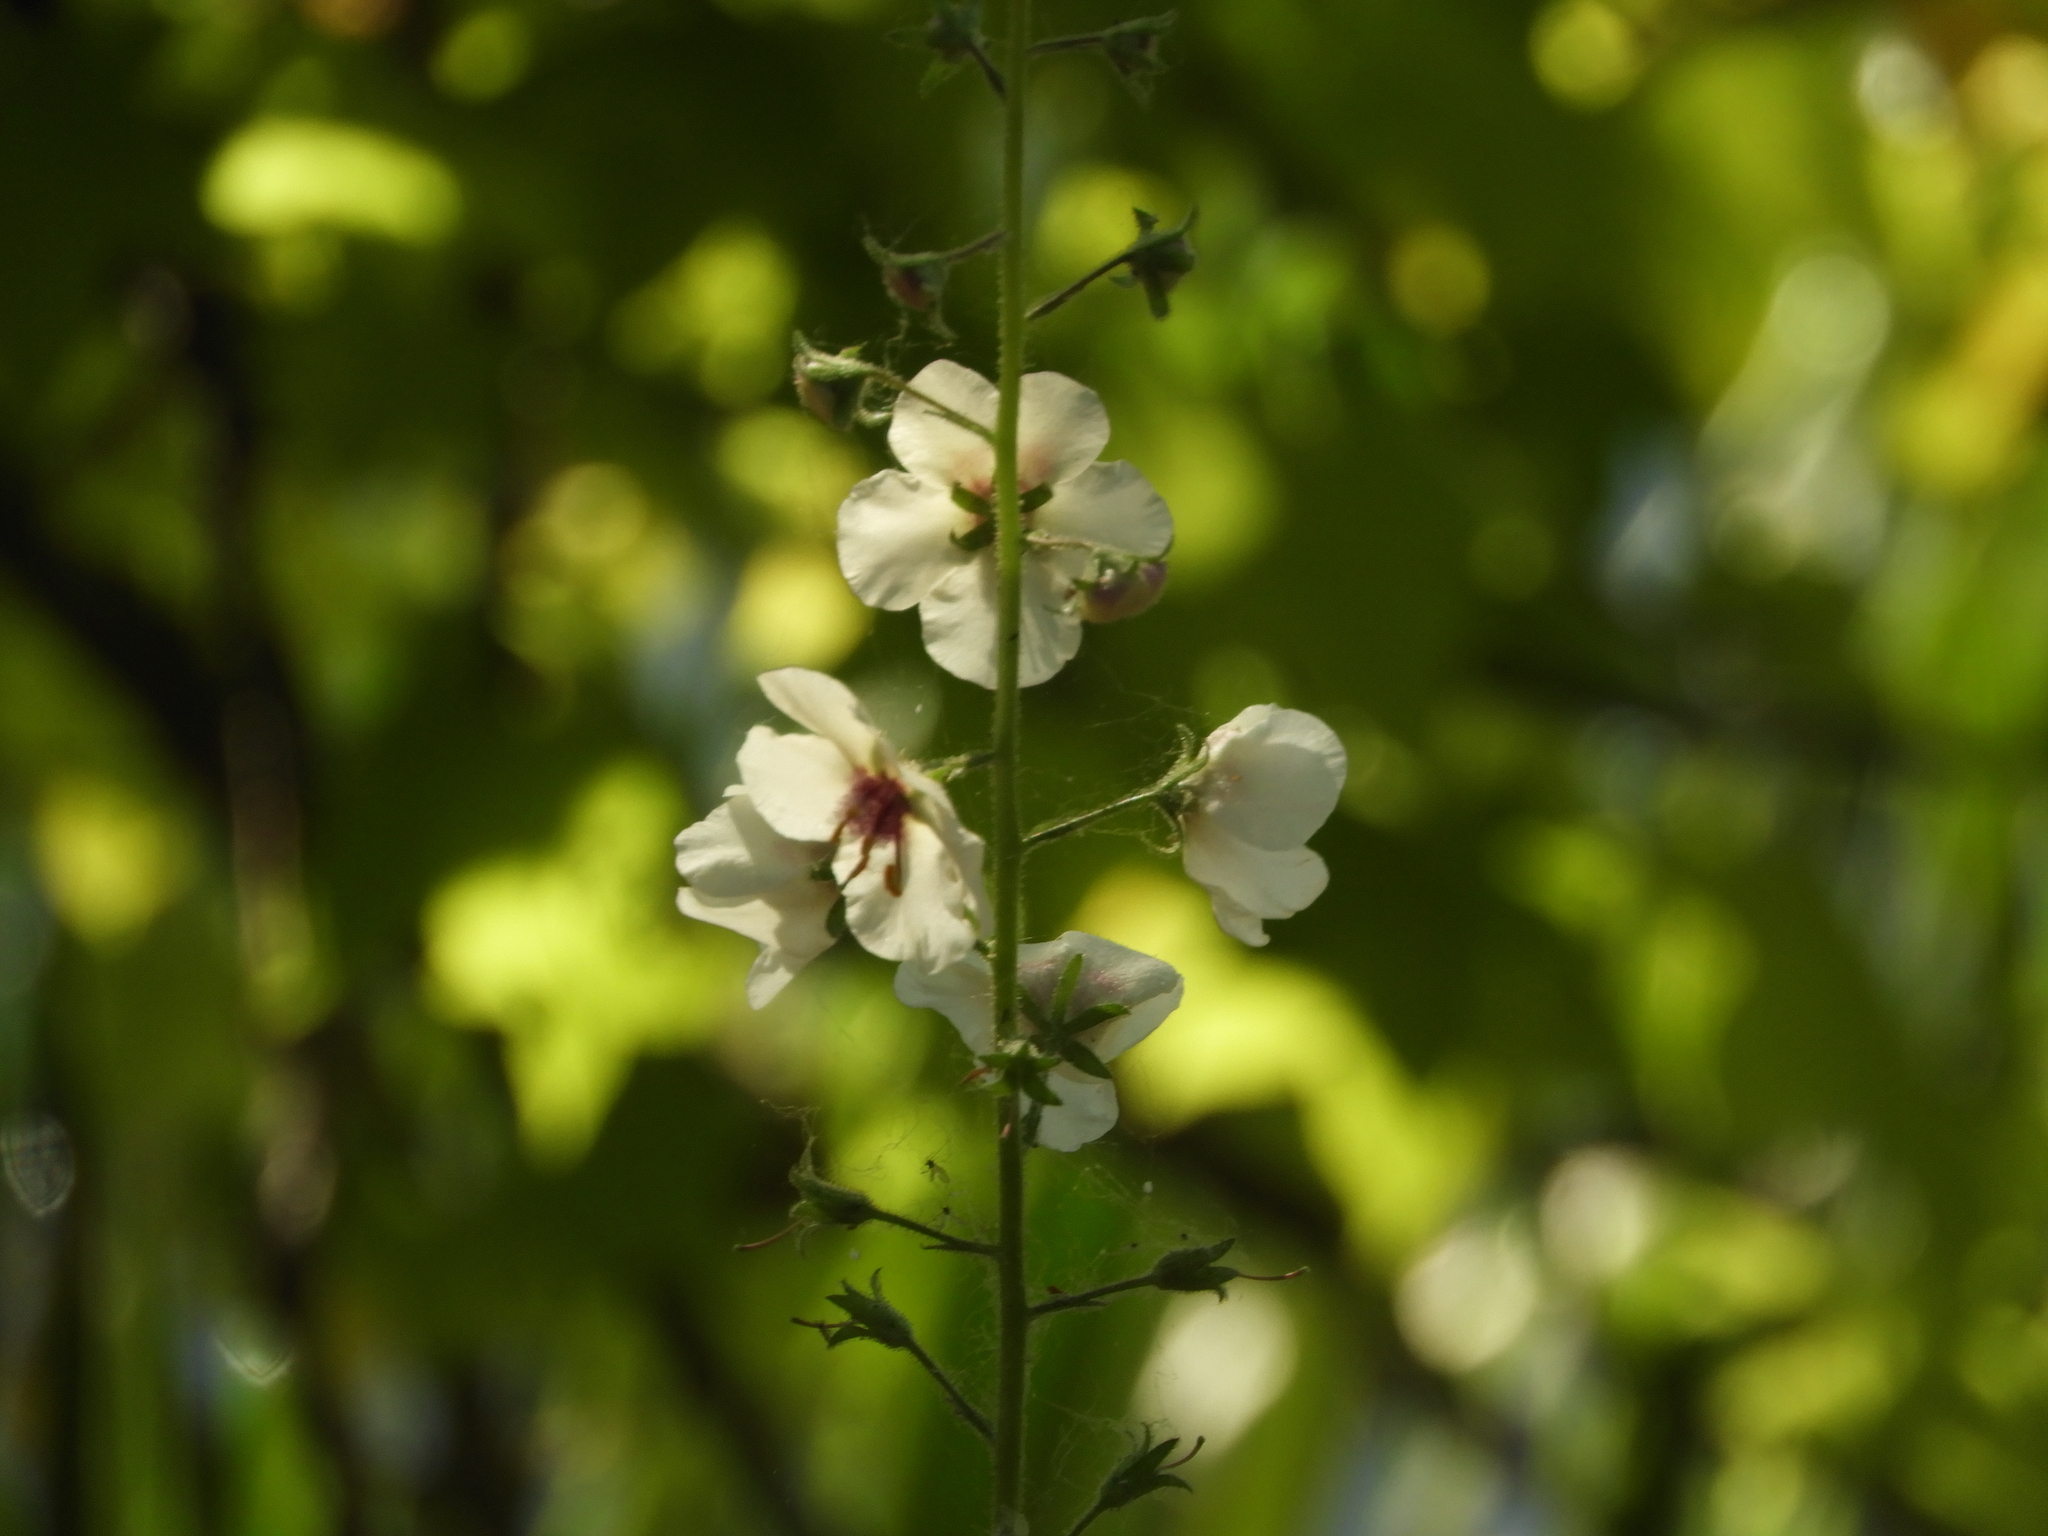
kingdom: Plantae
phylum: Tracheophyta
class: Magnoliopsida
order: Lamiales
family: Scrophulariaceae
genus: Verbascum
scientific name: Verbascum blattaria
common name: Moth mullein
